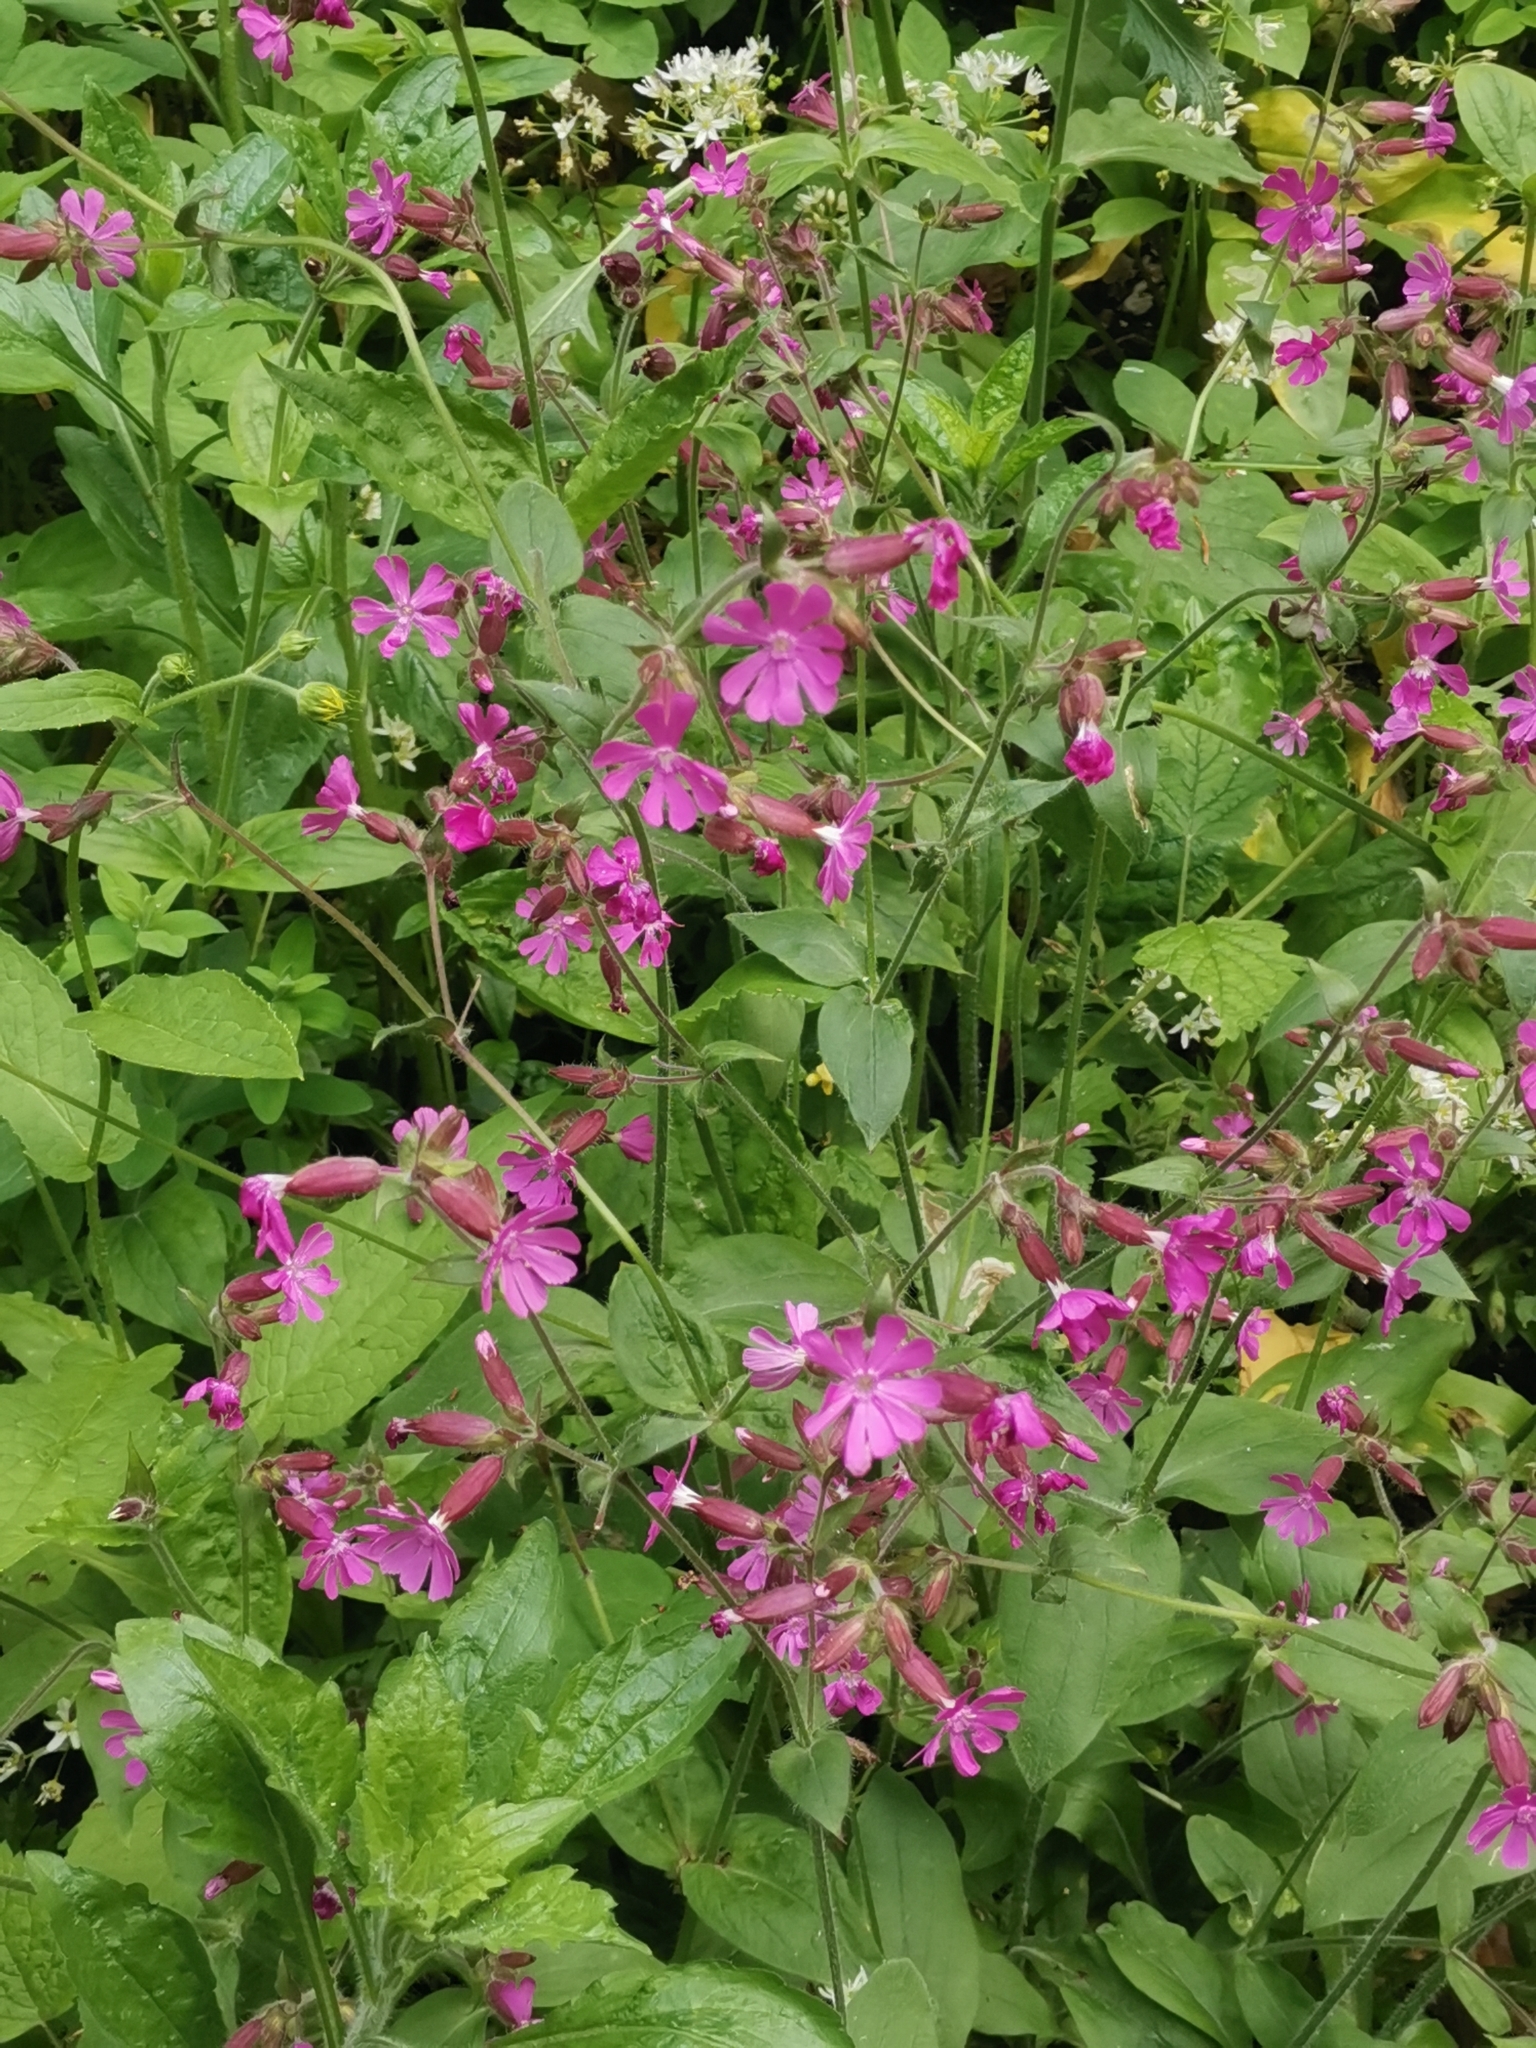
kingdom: Plantae
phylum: Tracheophyta
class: Magnoliopsida
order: Caryophyllales
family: Caryophyllaceae
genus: Silene
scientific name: Silene dioica
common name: Red campion
